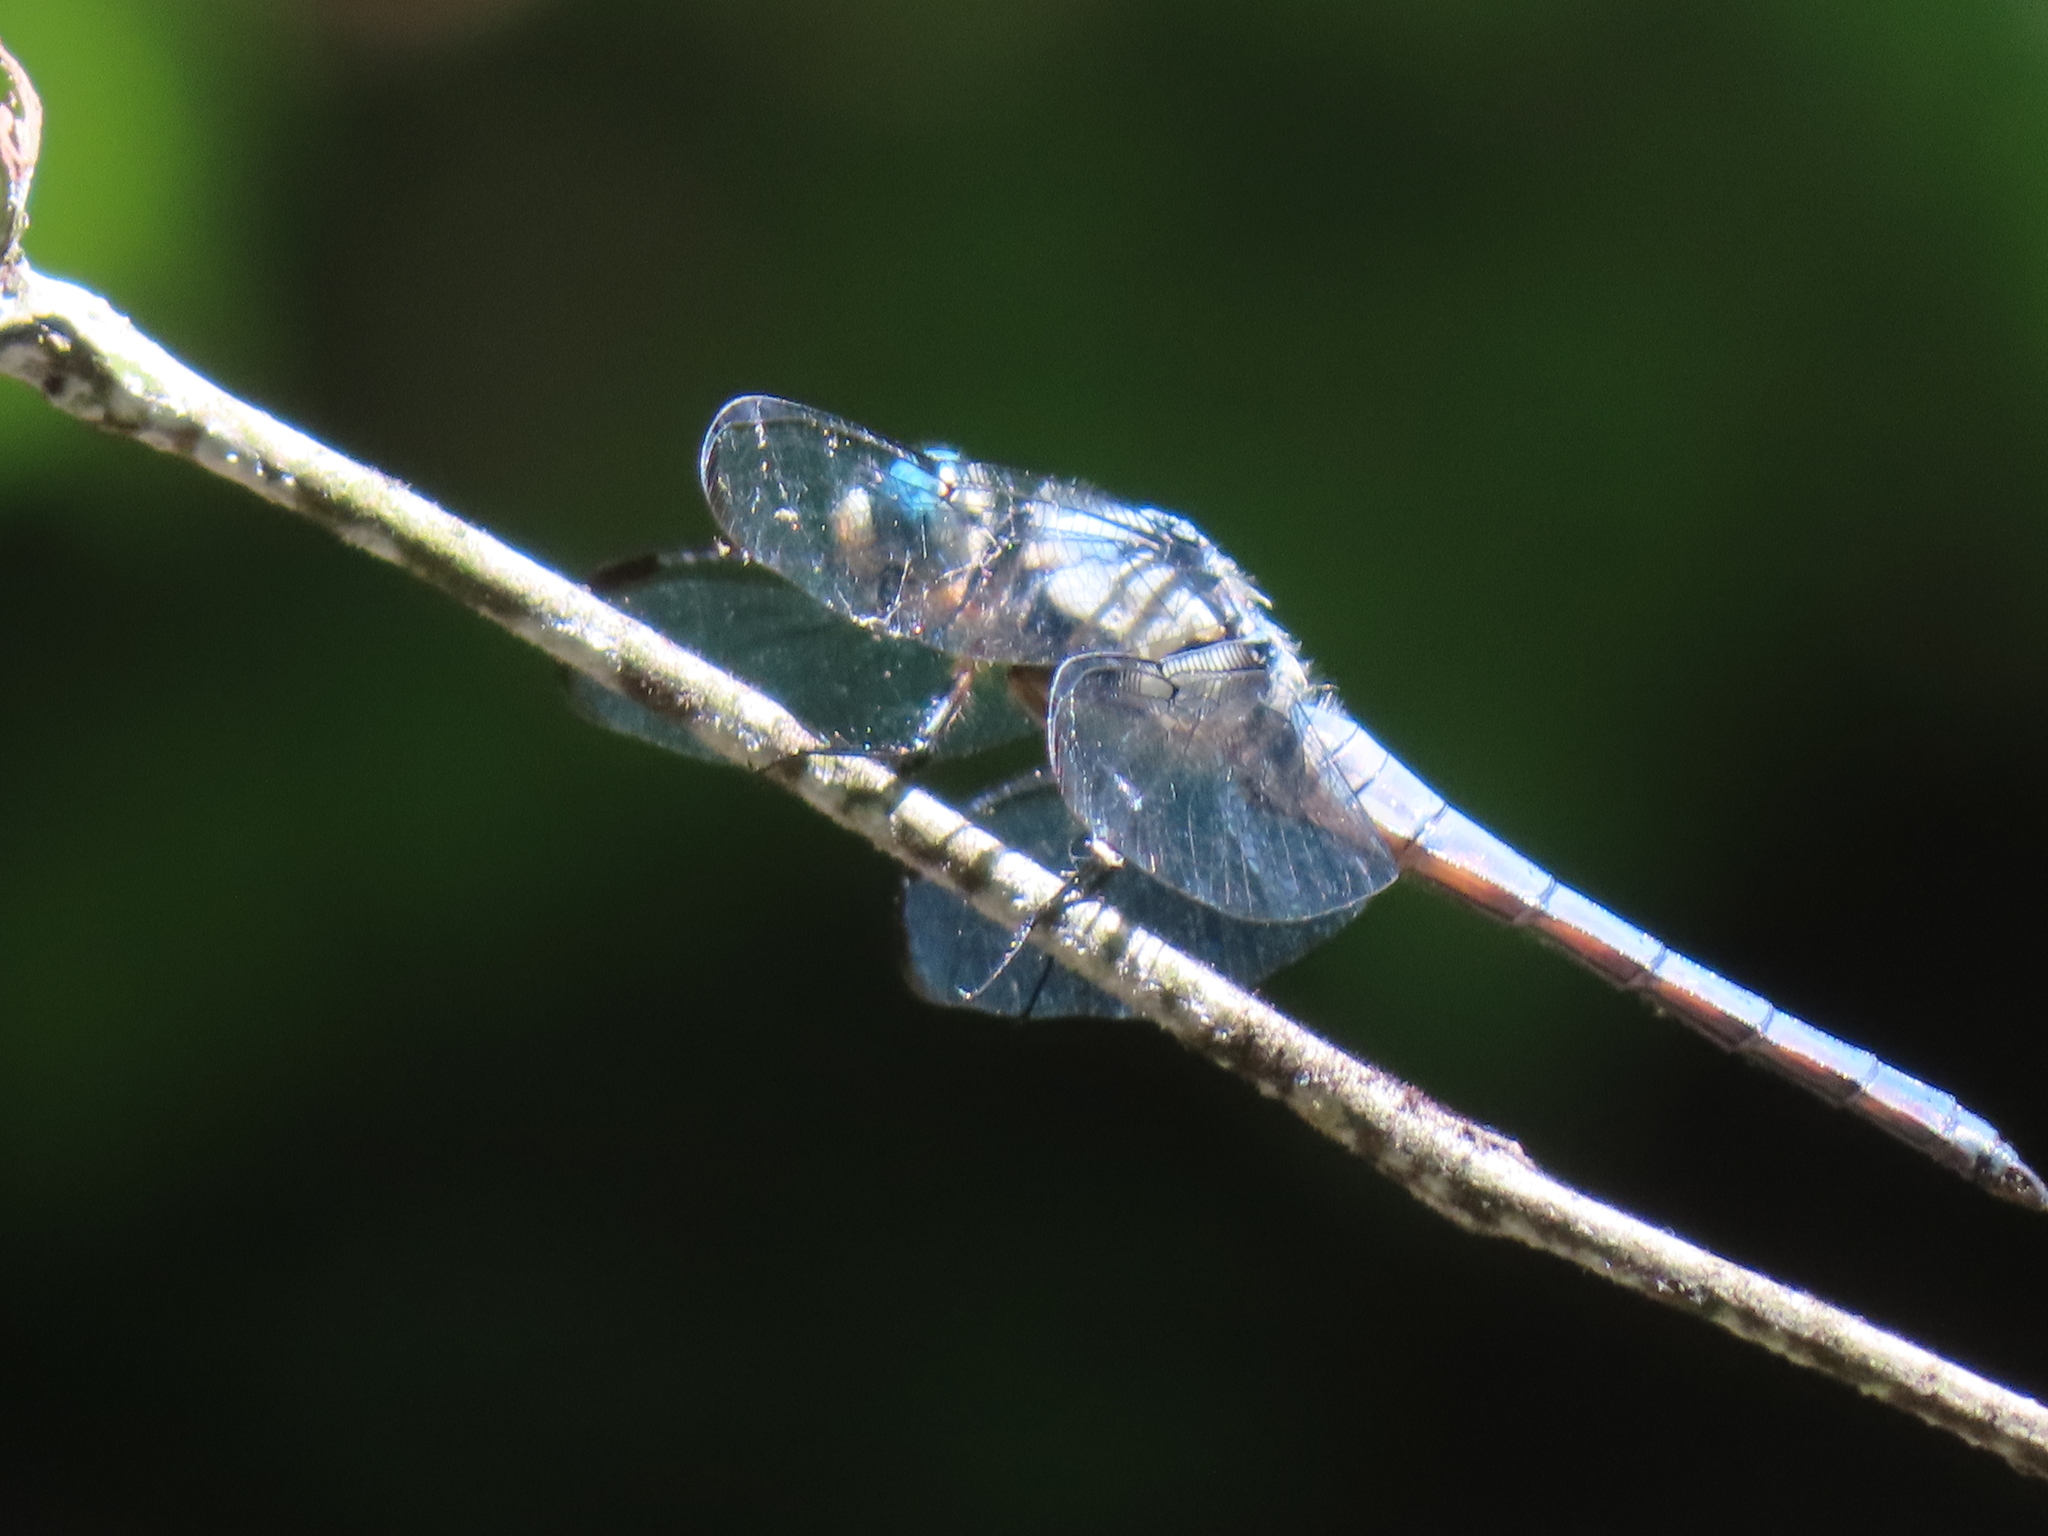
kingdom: Animalia
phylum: Arthropoda
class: Insecta
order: Odonata
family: Libellulidae
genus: Libellula
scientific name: Libellula vibrans
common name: Great blue skimmer
